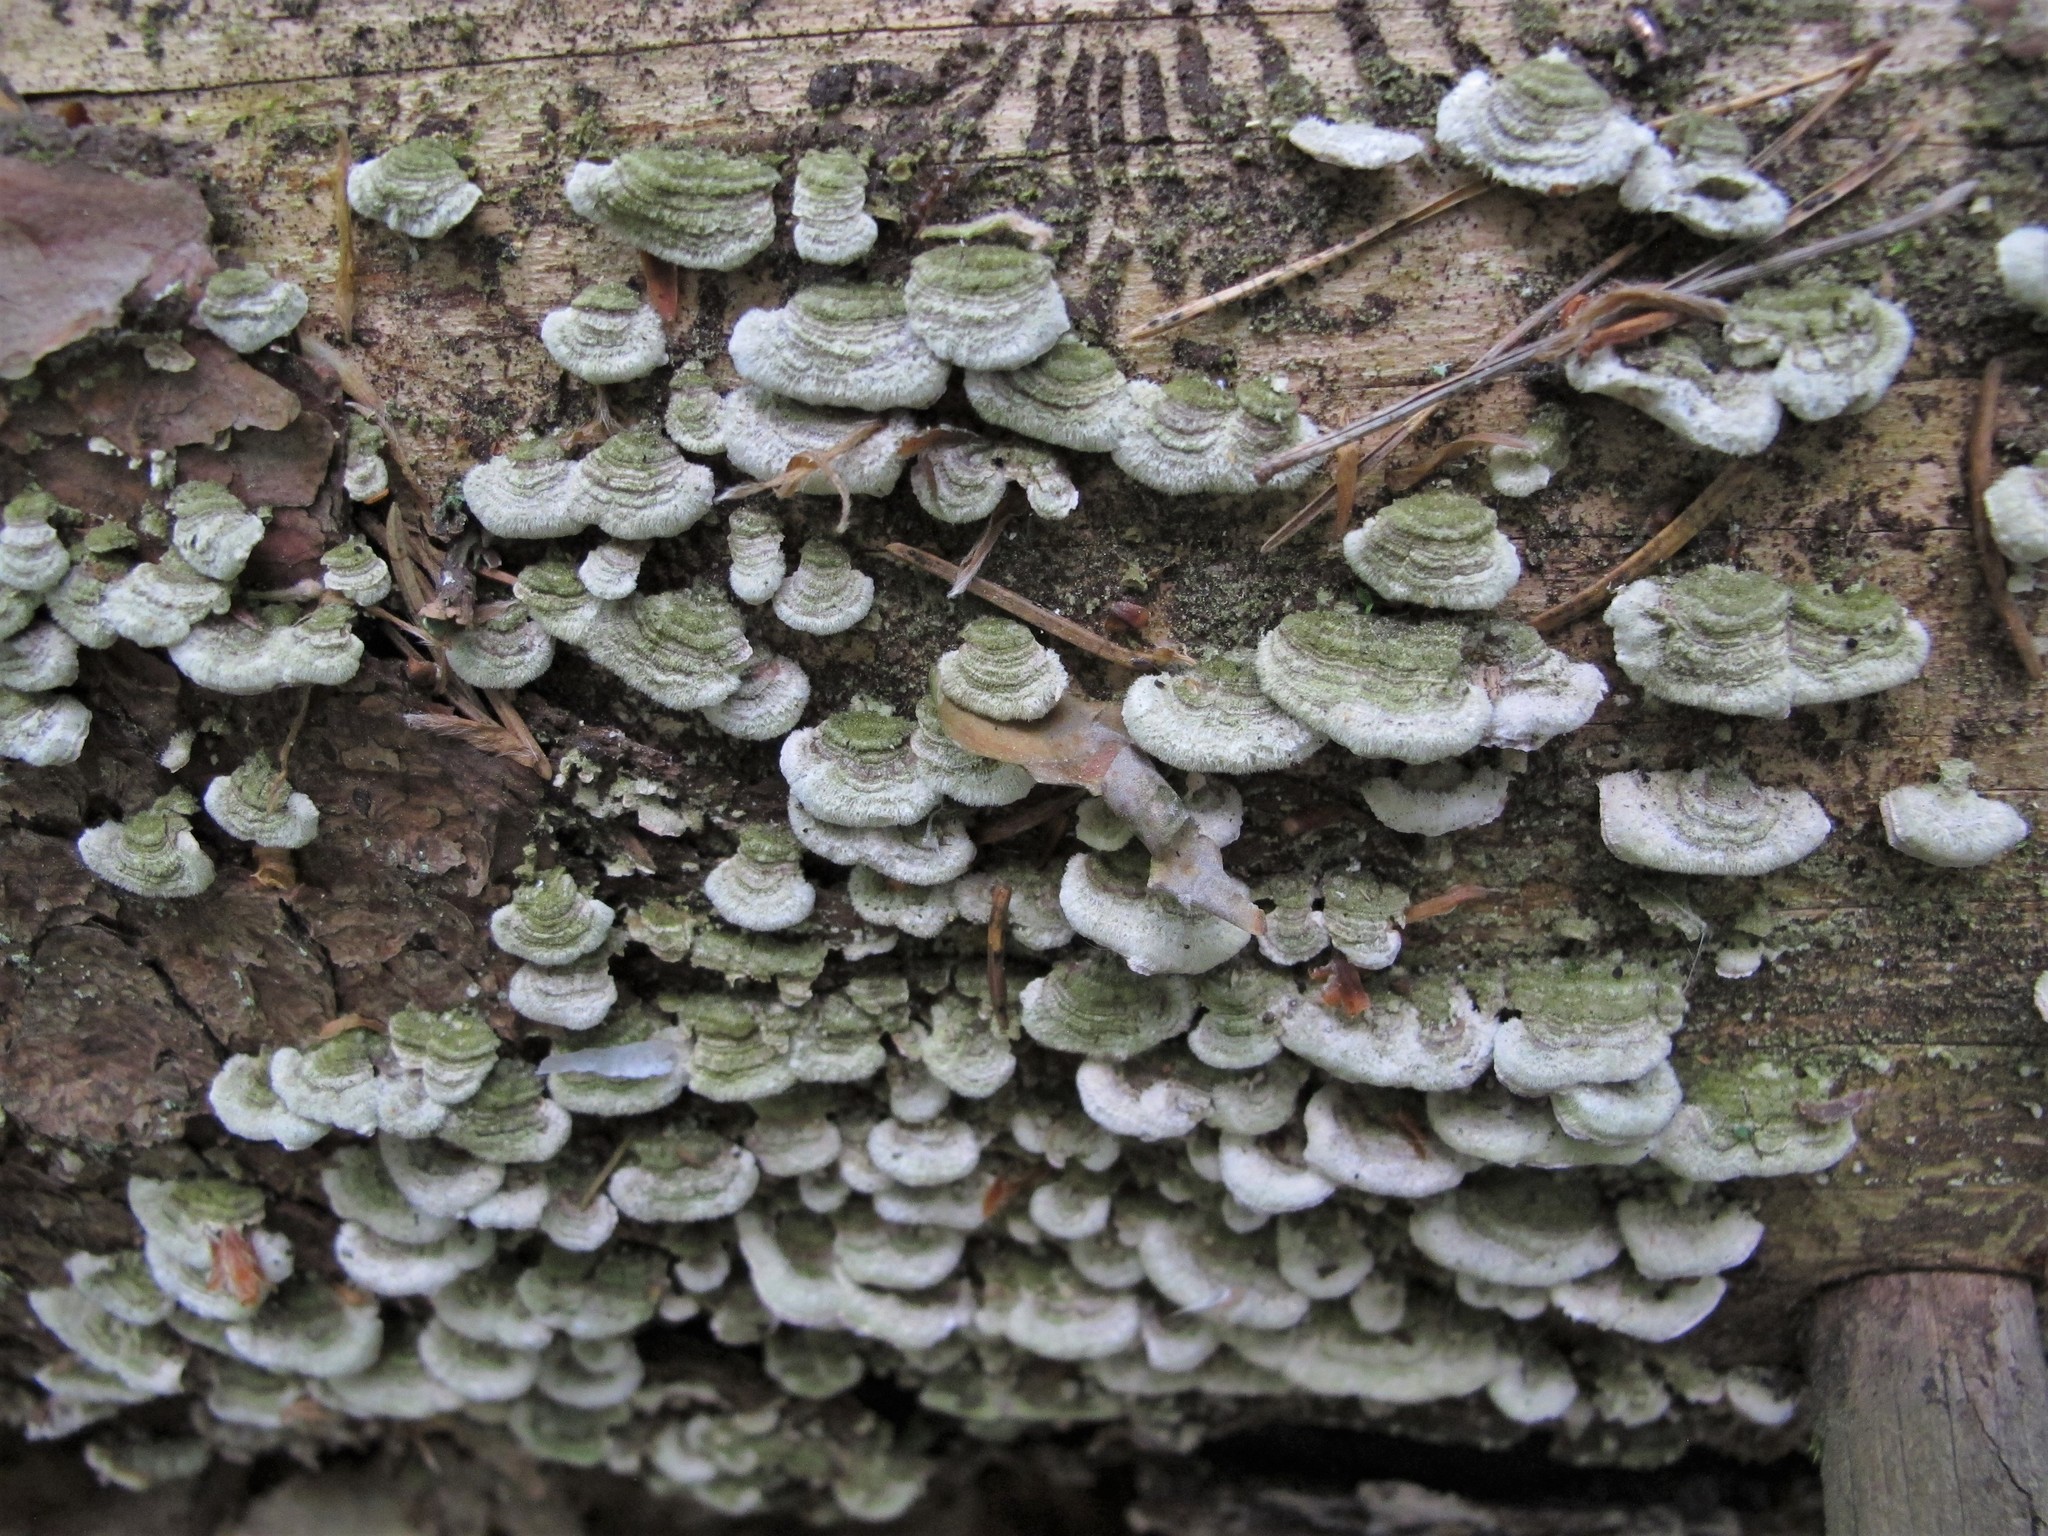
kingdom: Fungi
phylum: Basidiomycota
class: Agaricomycetes
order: Polyporales
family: Cerrenaceae
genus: Cerrena
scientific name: Cerrena unicolor
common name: Mossy maze polypore
